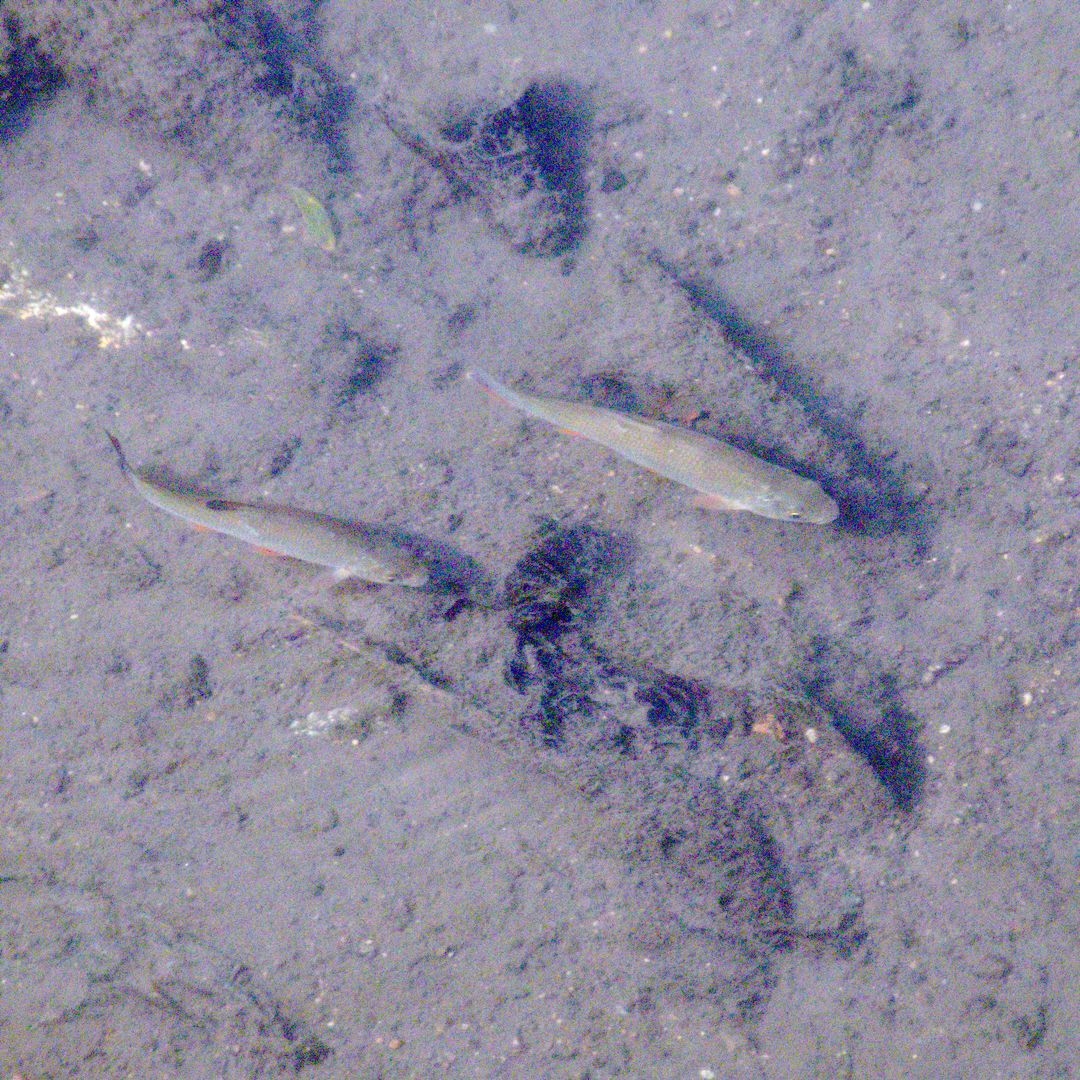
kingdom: Animalia
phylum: Chordata
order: Cypriniformes
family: Cyprinidae
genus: Leuciscus
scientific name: Leuciscus idus
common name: Ide
